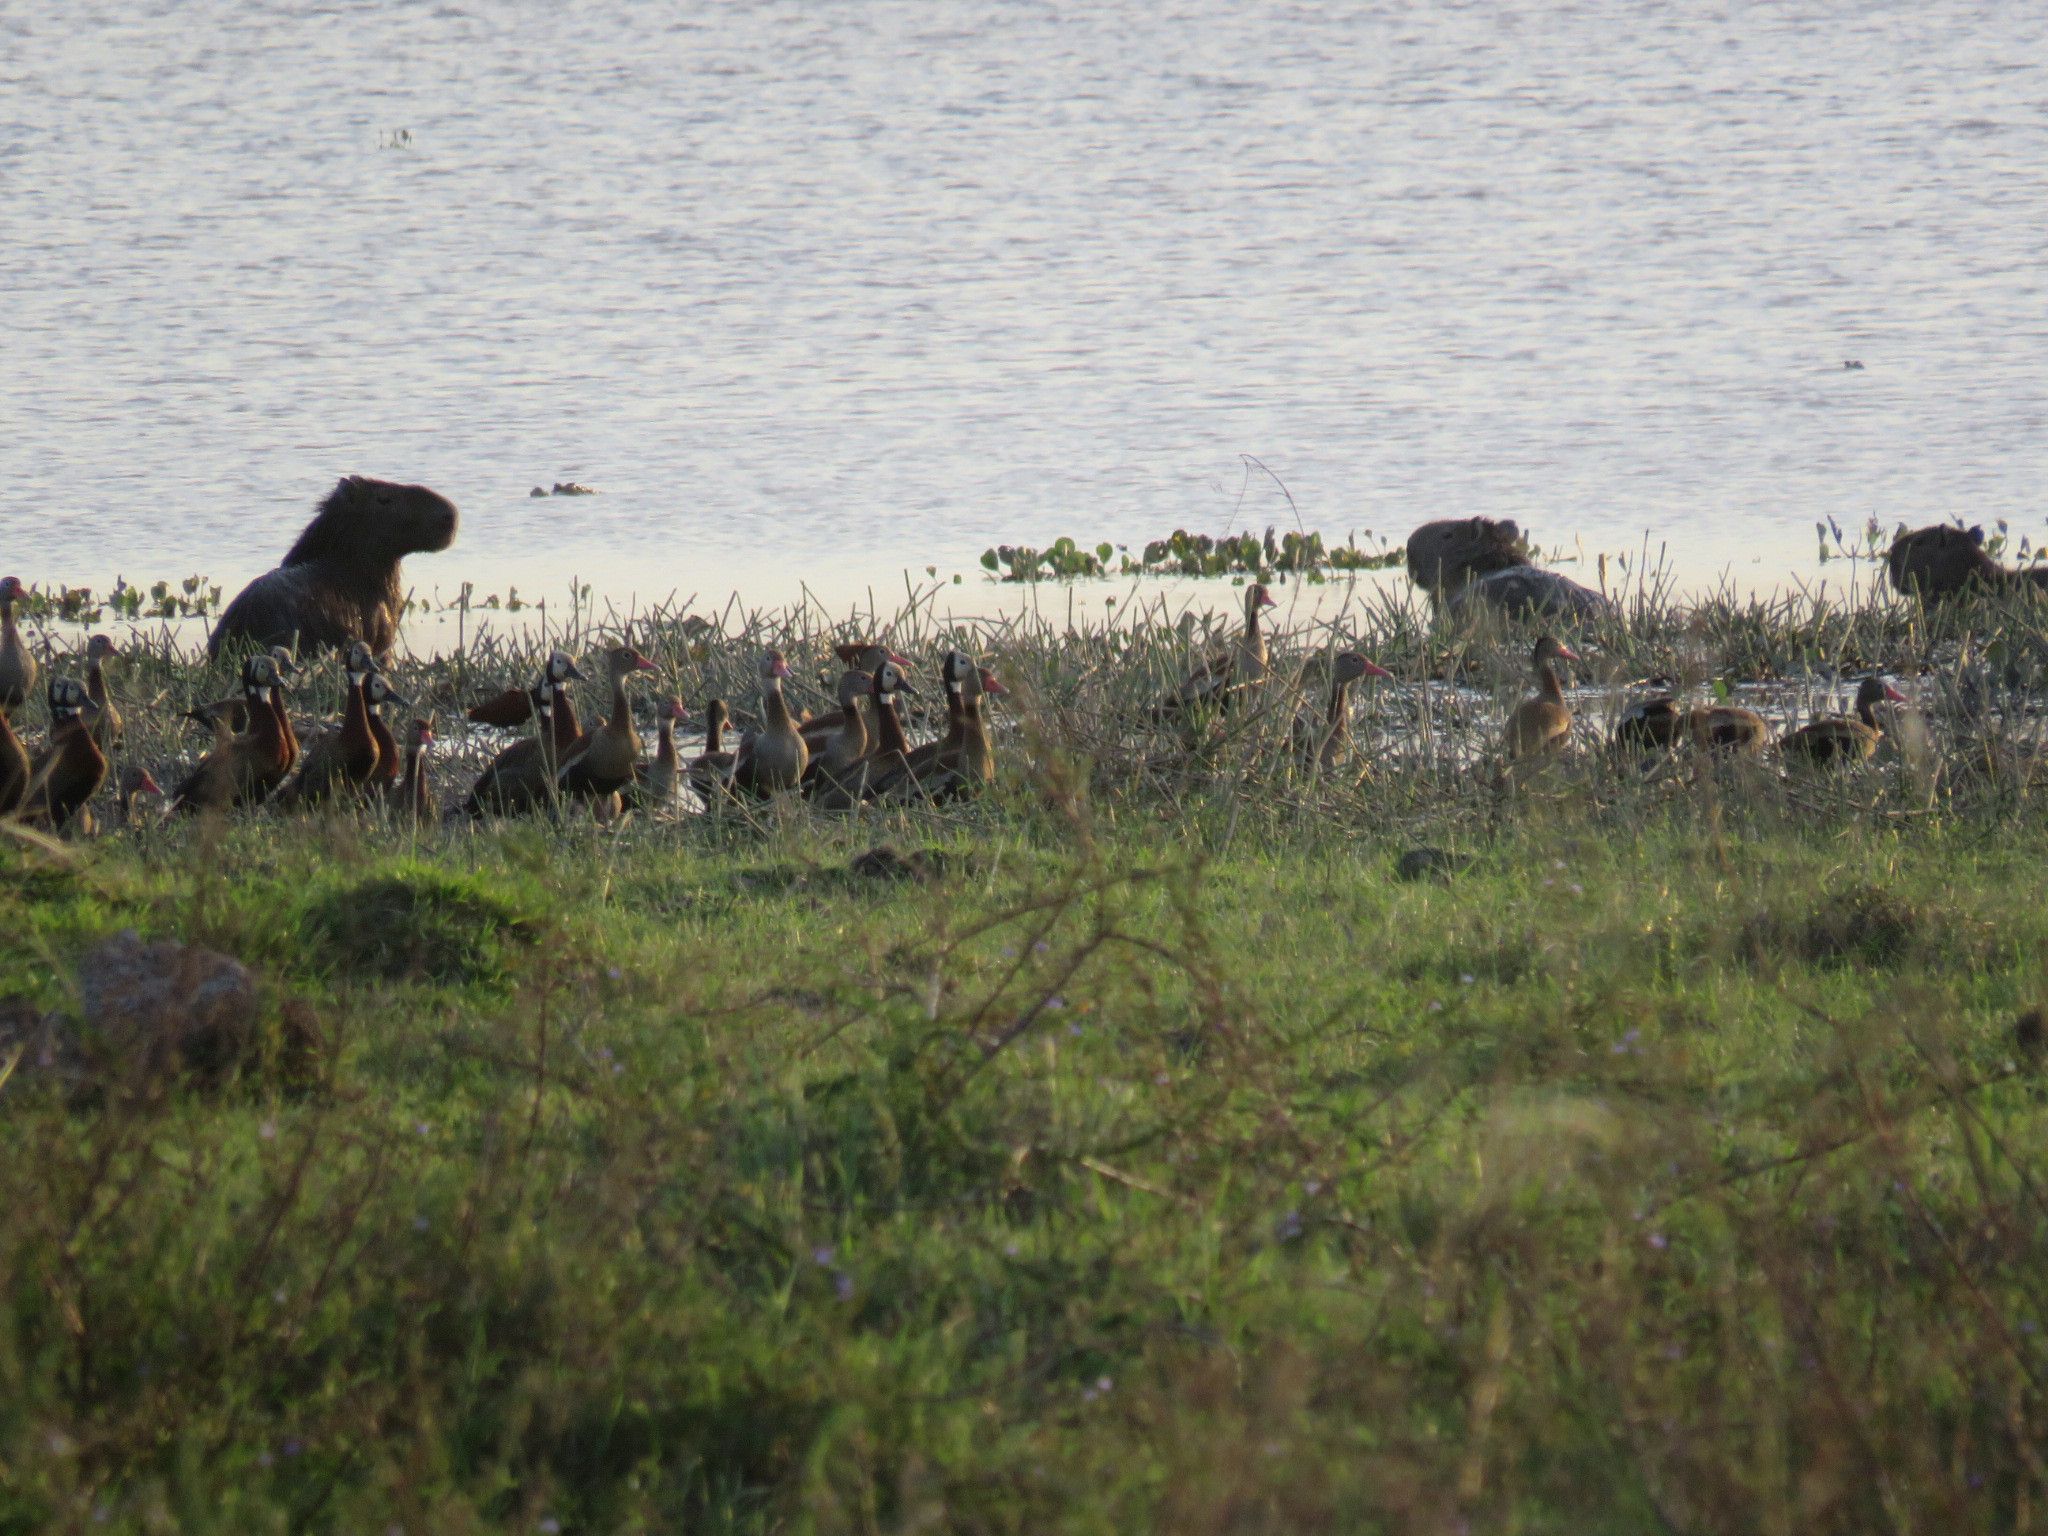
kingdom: Animalia
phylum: Chordata
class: Mammalia
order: Rodentia
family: Caviidae
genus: Hydrochoerus
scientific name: Hydrochoerus hydrochaeris
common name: Capybara
